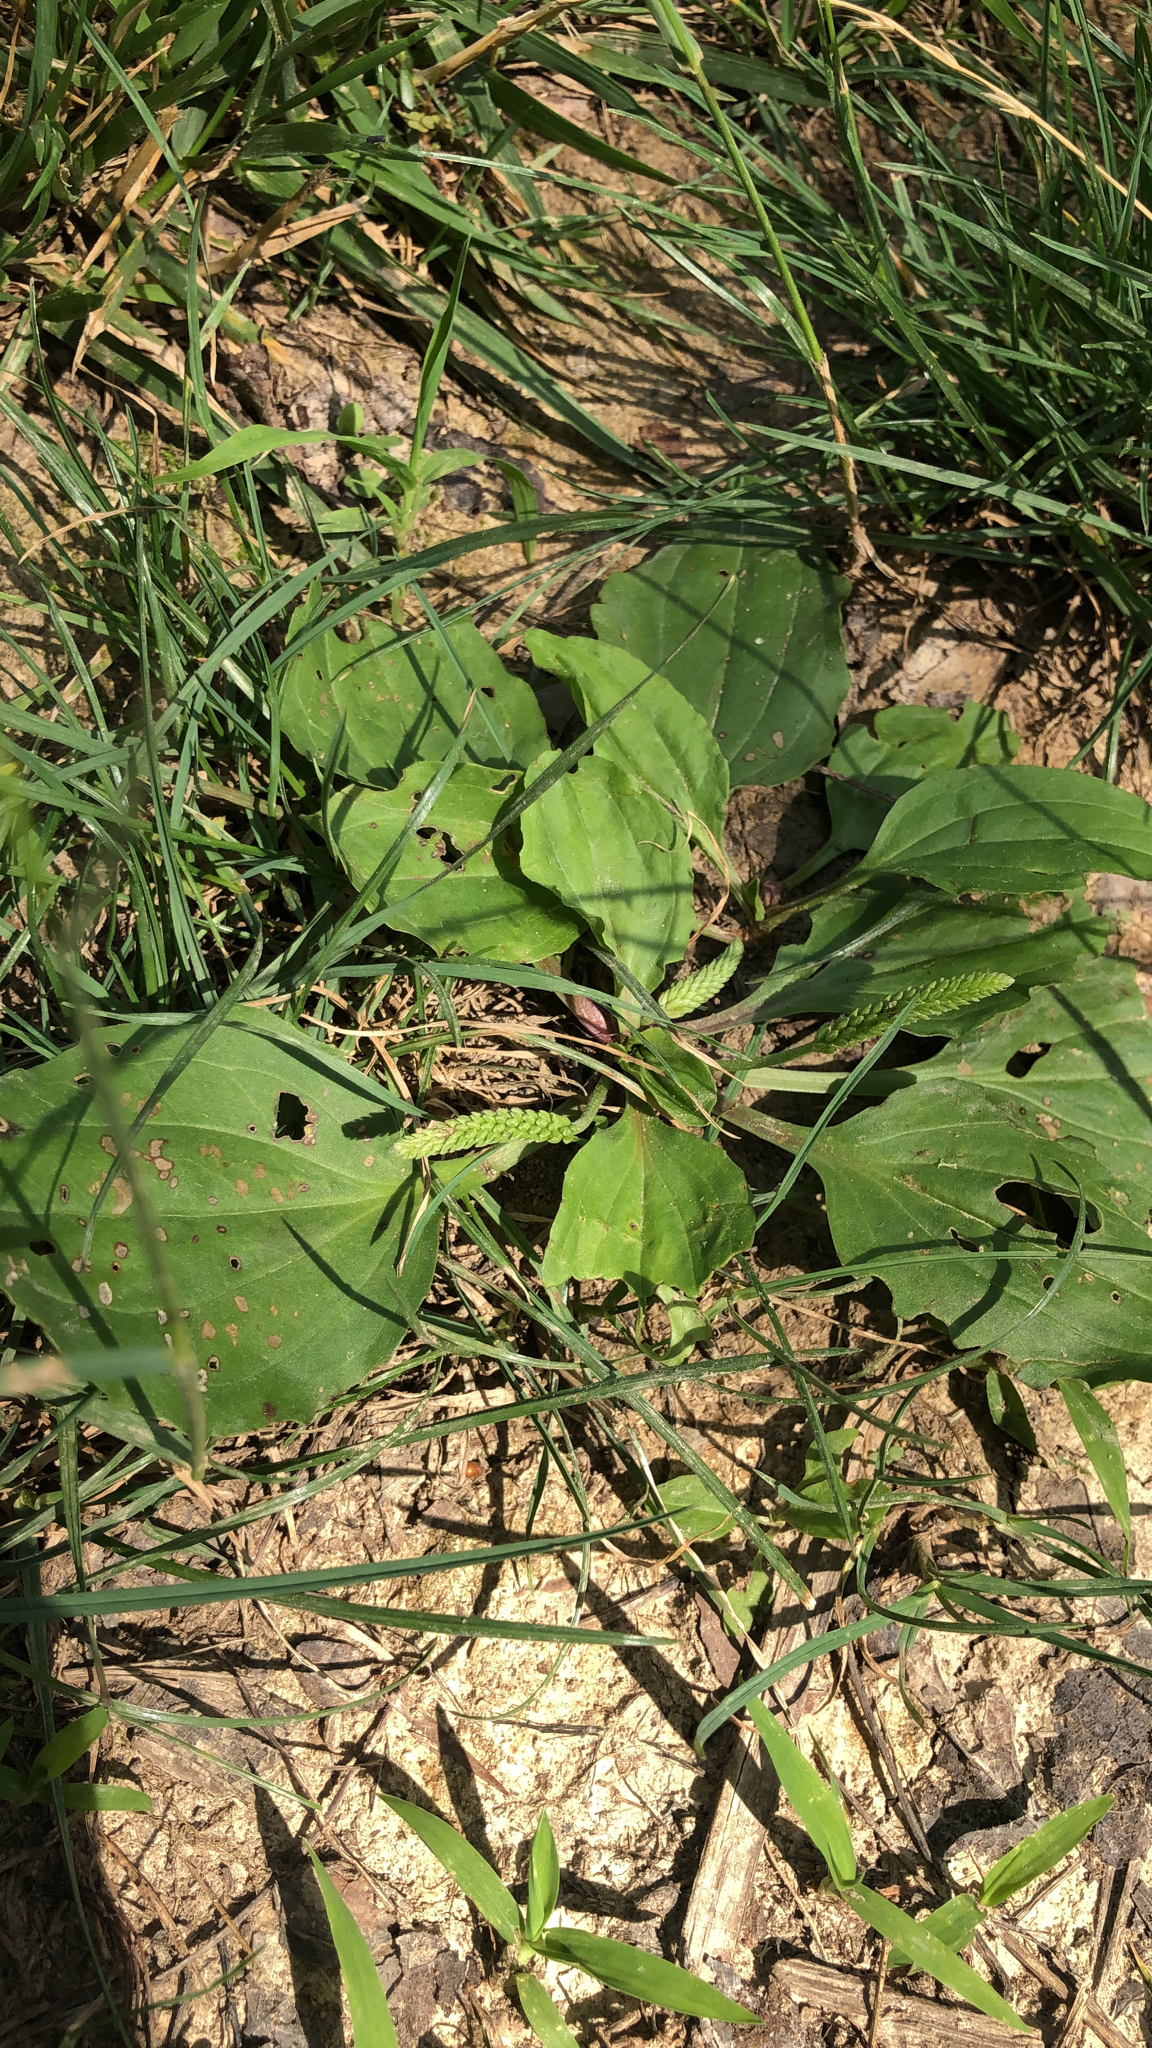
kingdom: Plantae
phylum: Tracheophyta
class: Magnoliopsida
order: Lamiales
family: Plantaginaceae
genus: Plantago
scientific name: Plantago rugelii
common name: American plantain
